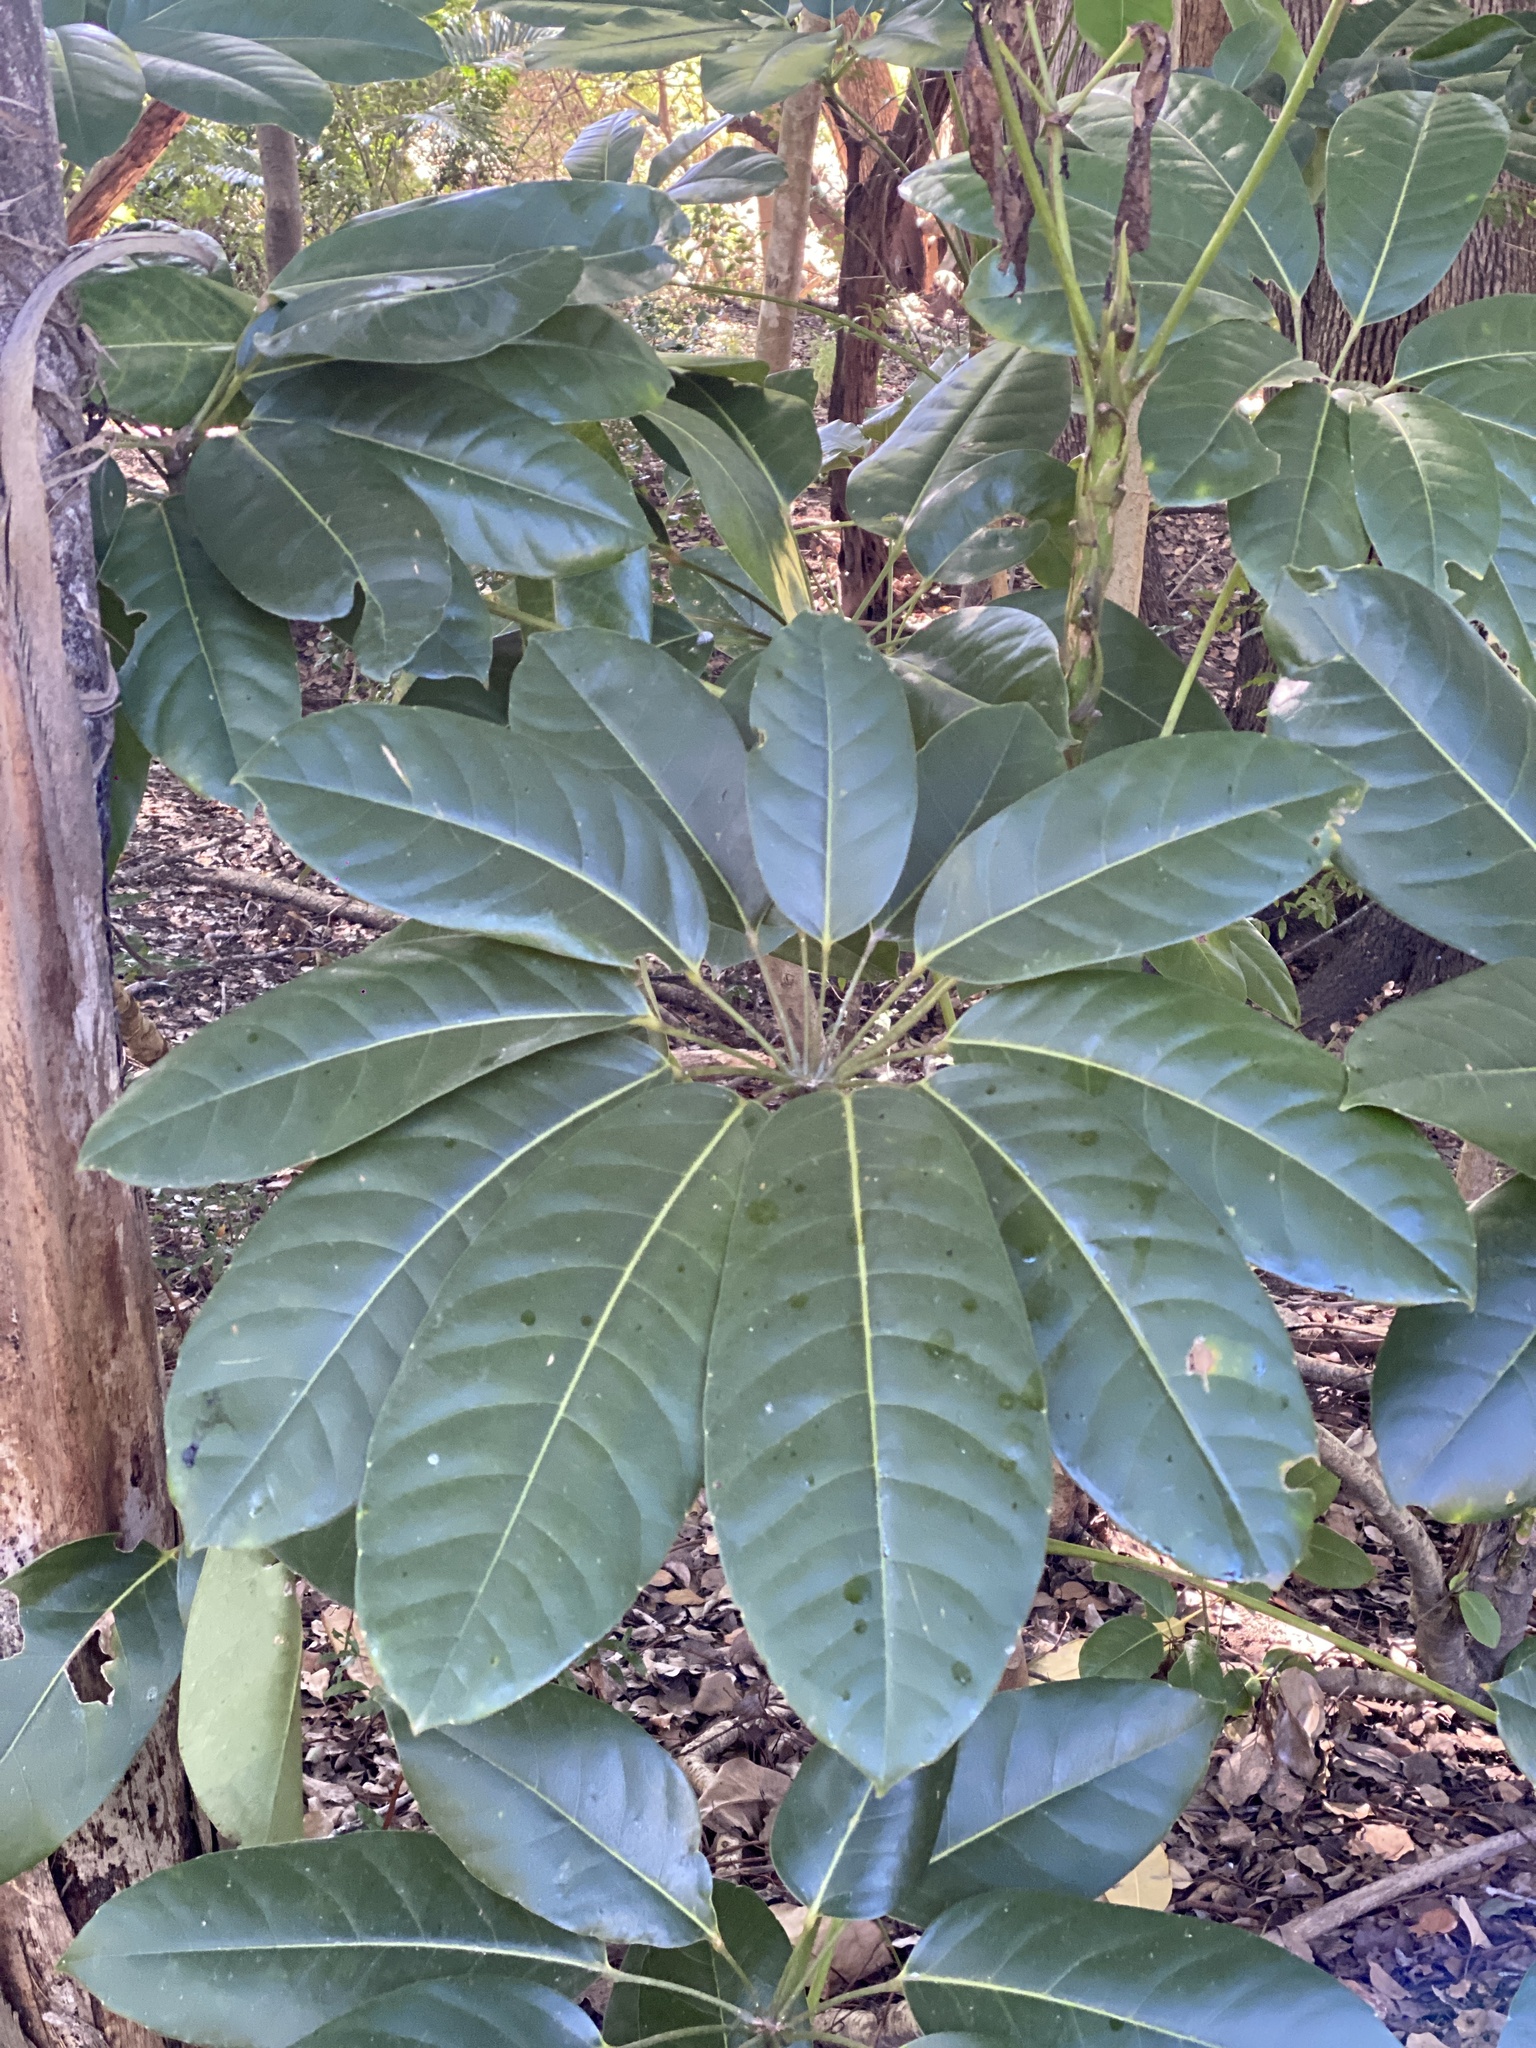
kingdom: Plantae
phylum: Tracheophyta
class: Magnoliopsida
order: Apiales
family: Araliaceae
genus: Heptapleurum
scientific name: Heptapleurum actinophyllum
